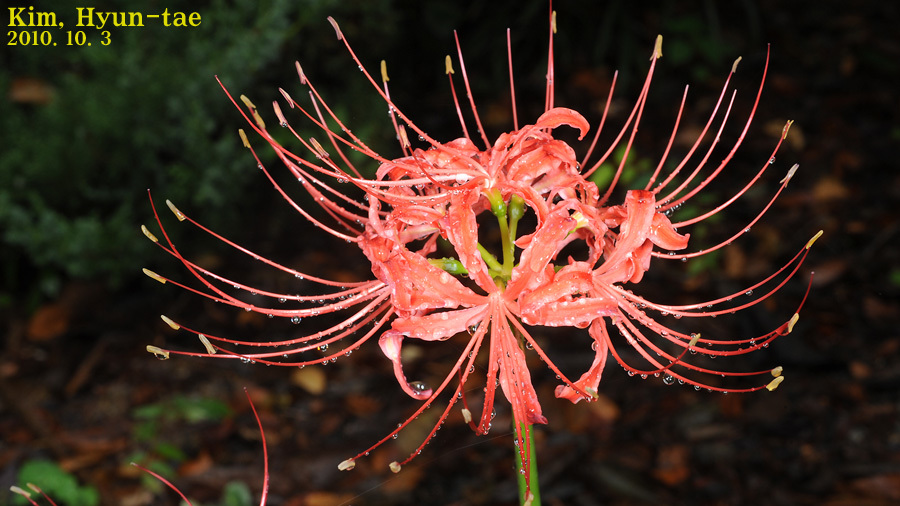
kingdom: Plantae
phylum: Tracheophyta
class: Liliopsida
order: Asparagales
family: Amaryllidaceae
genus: Lycoris
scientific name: Lycoris radiata
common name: Red spider lily
